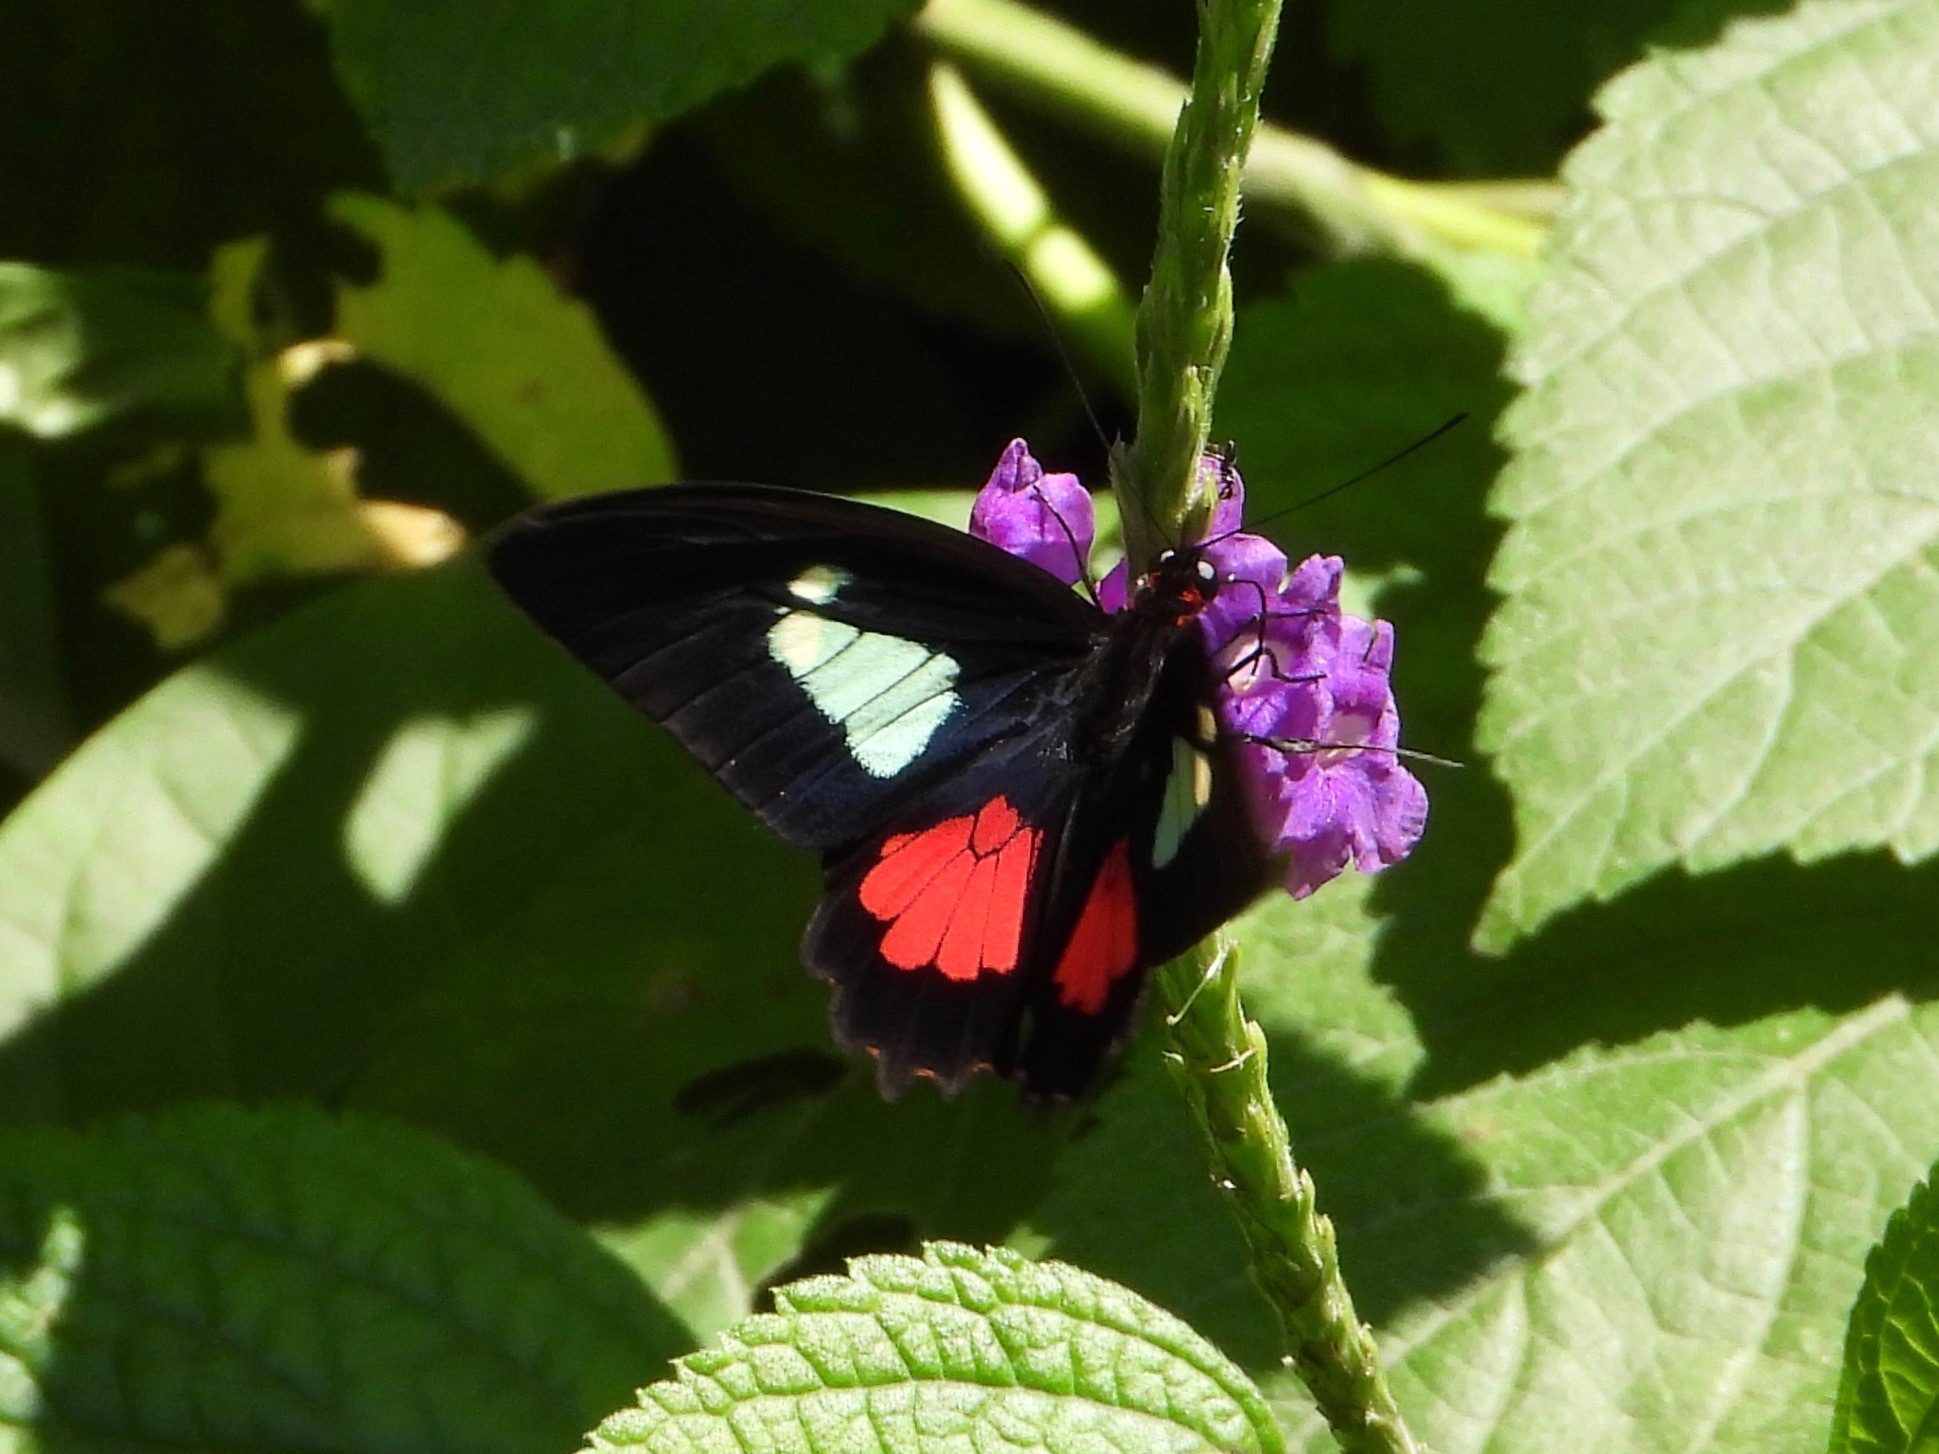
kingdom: Animalia
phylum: Arthropoda
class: Insecta
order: Lepidoptera
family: Papilionidae
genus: Parides
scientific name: Parides eurimedes
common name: True cattleheart
